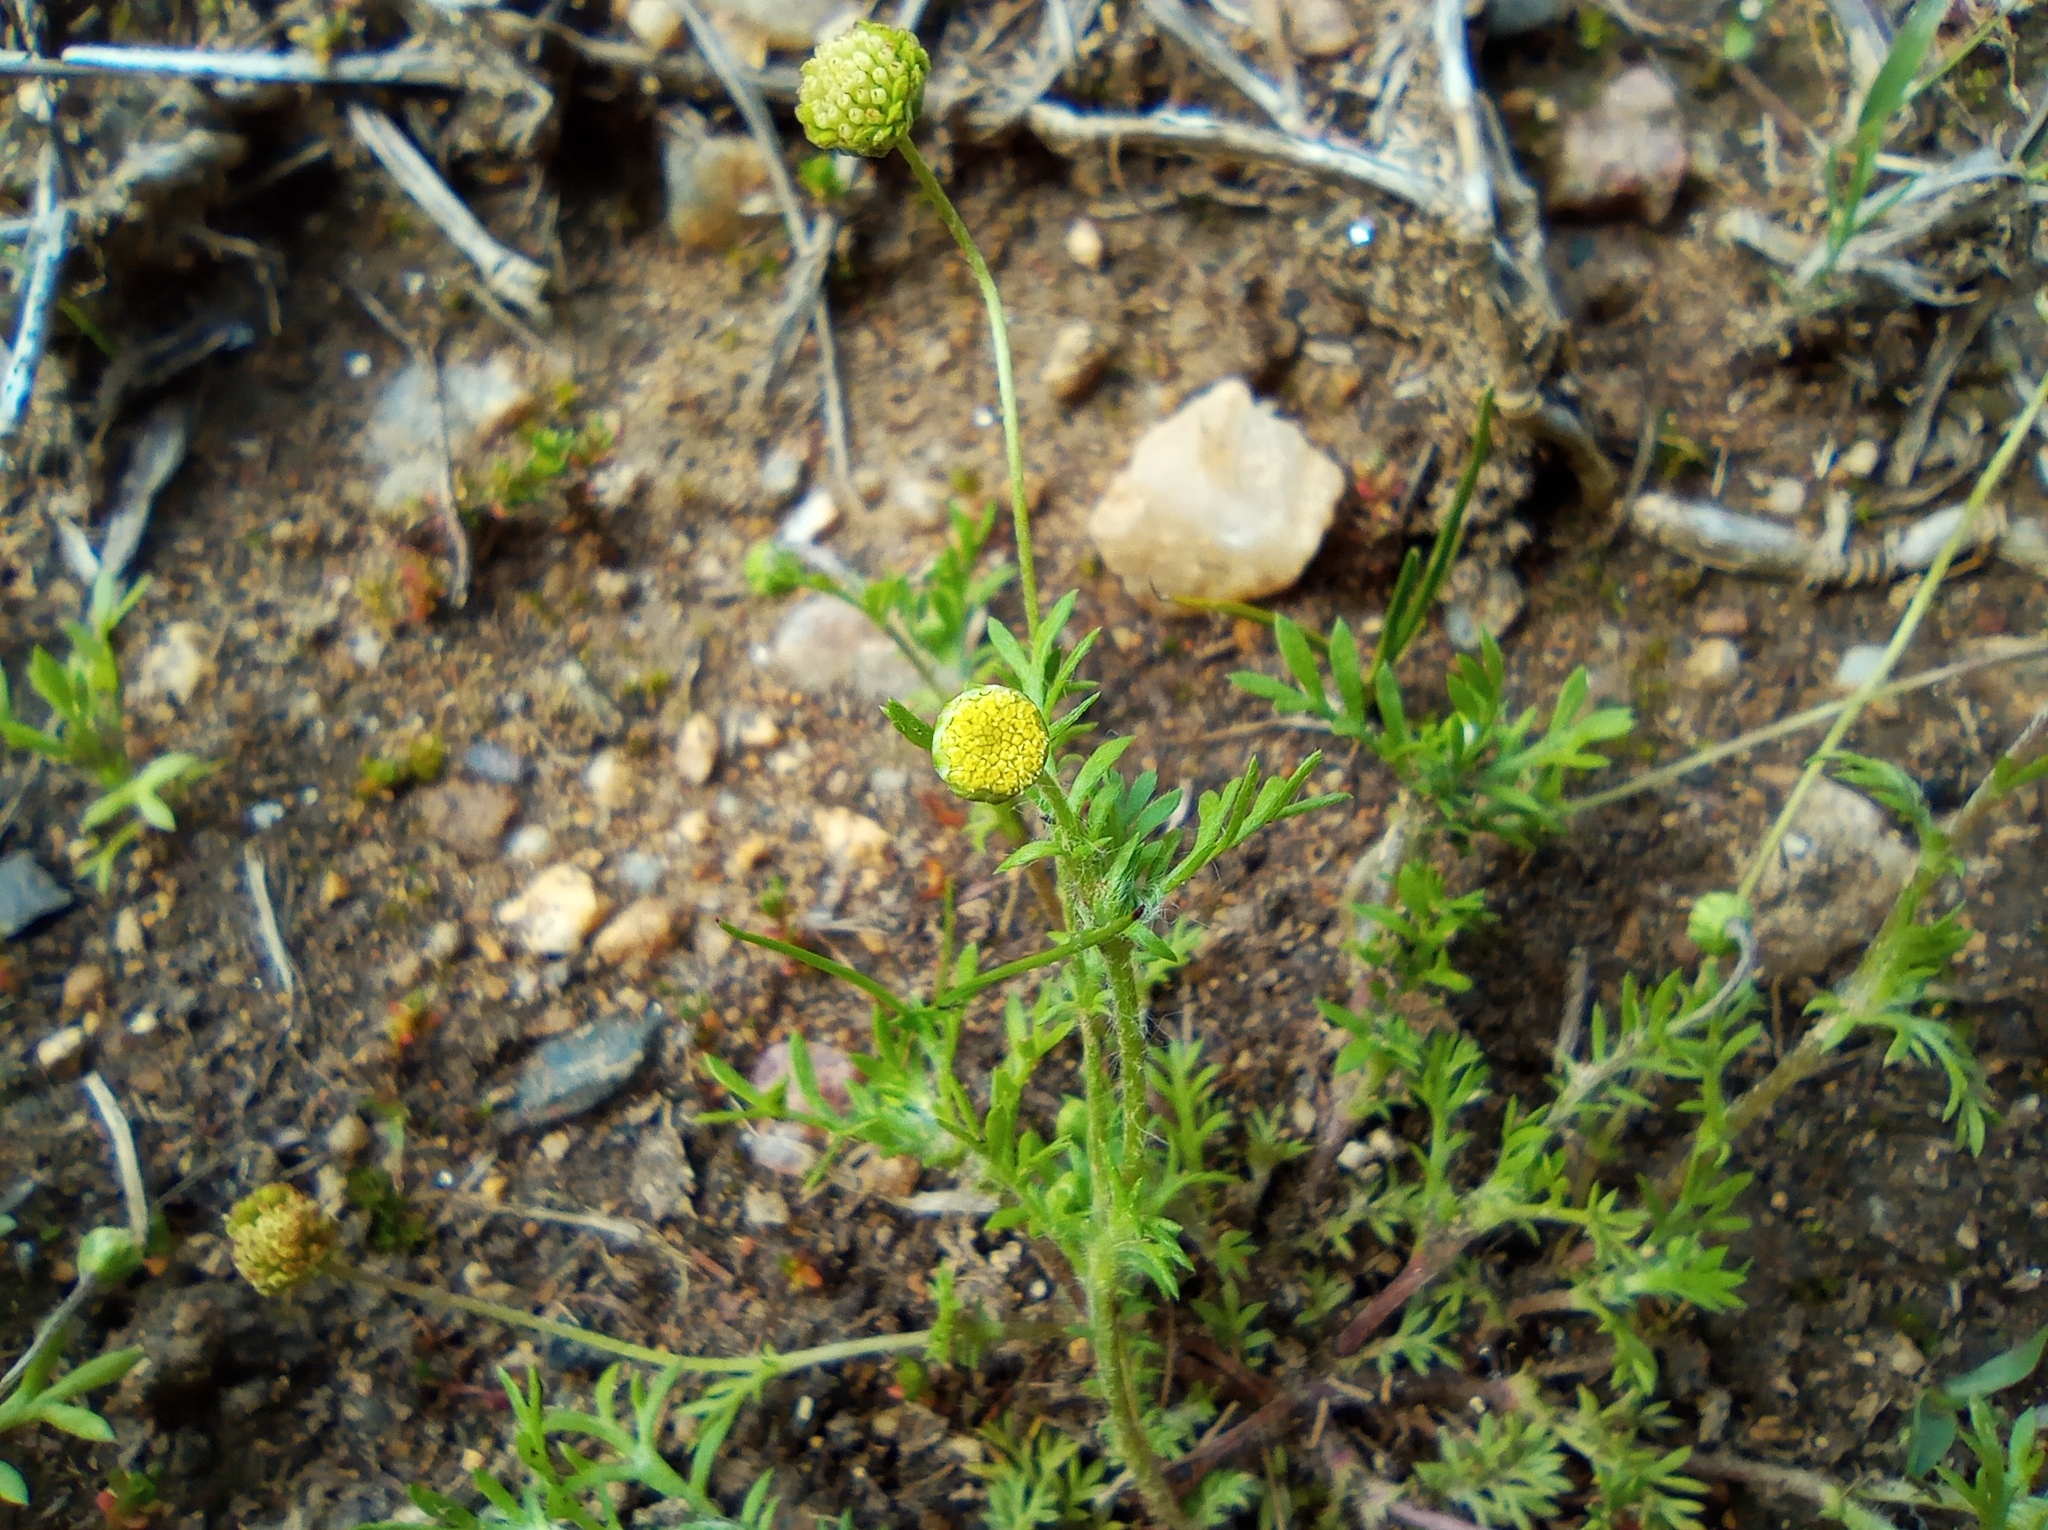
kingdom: Plantae
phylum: Tracheophyta
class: Magnoliopsida
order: Asterales
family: Asteraceae
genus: Cotula
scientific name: Cotula australis
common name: Australian waterbuttons
